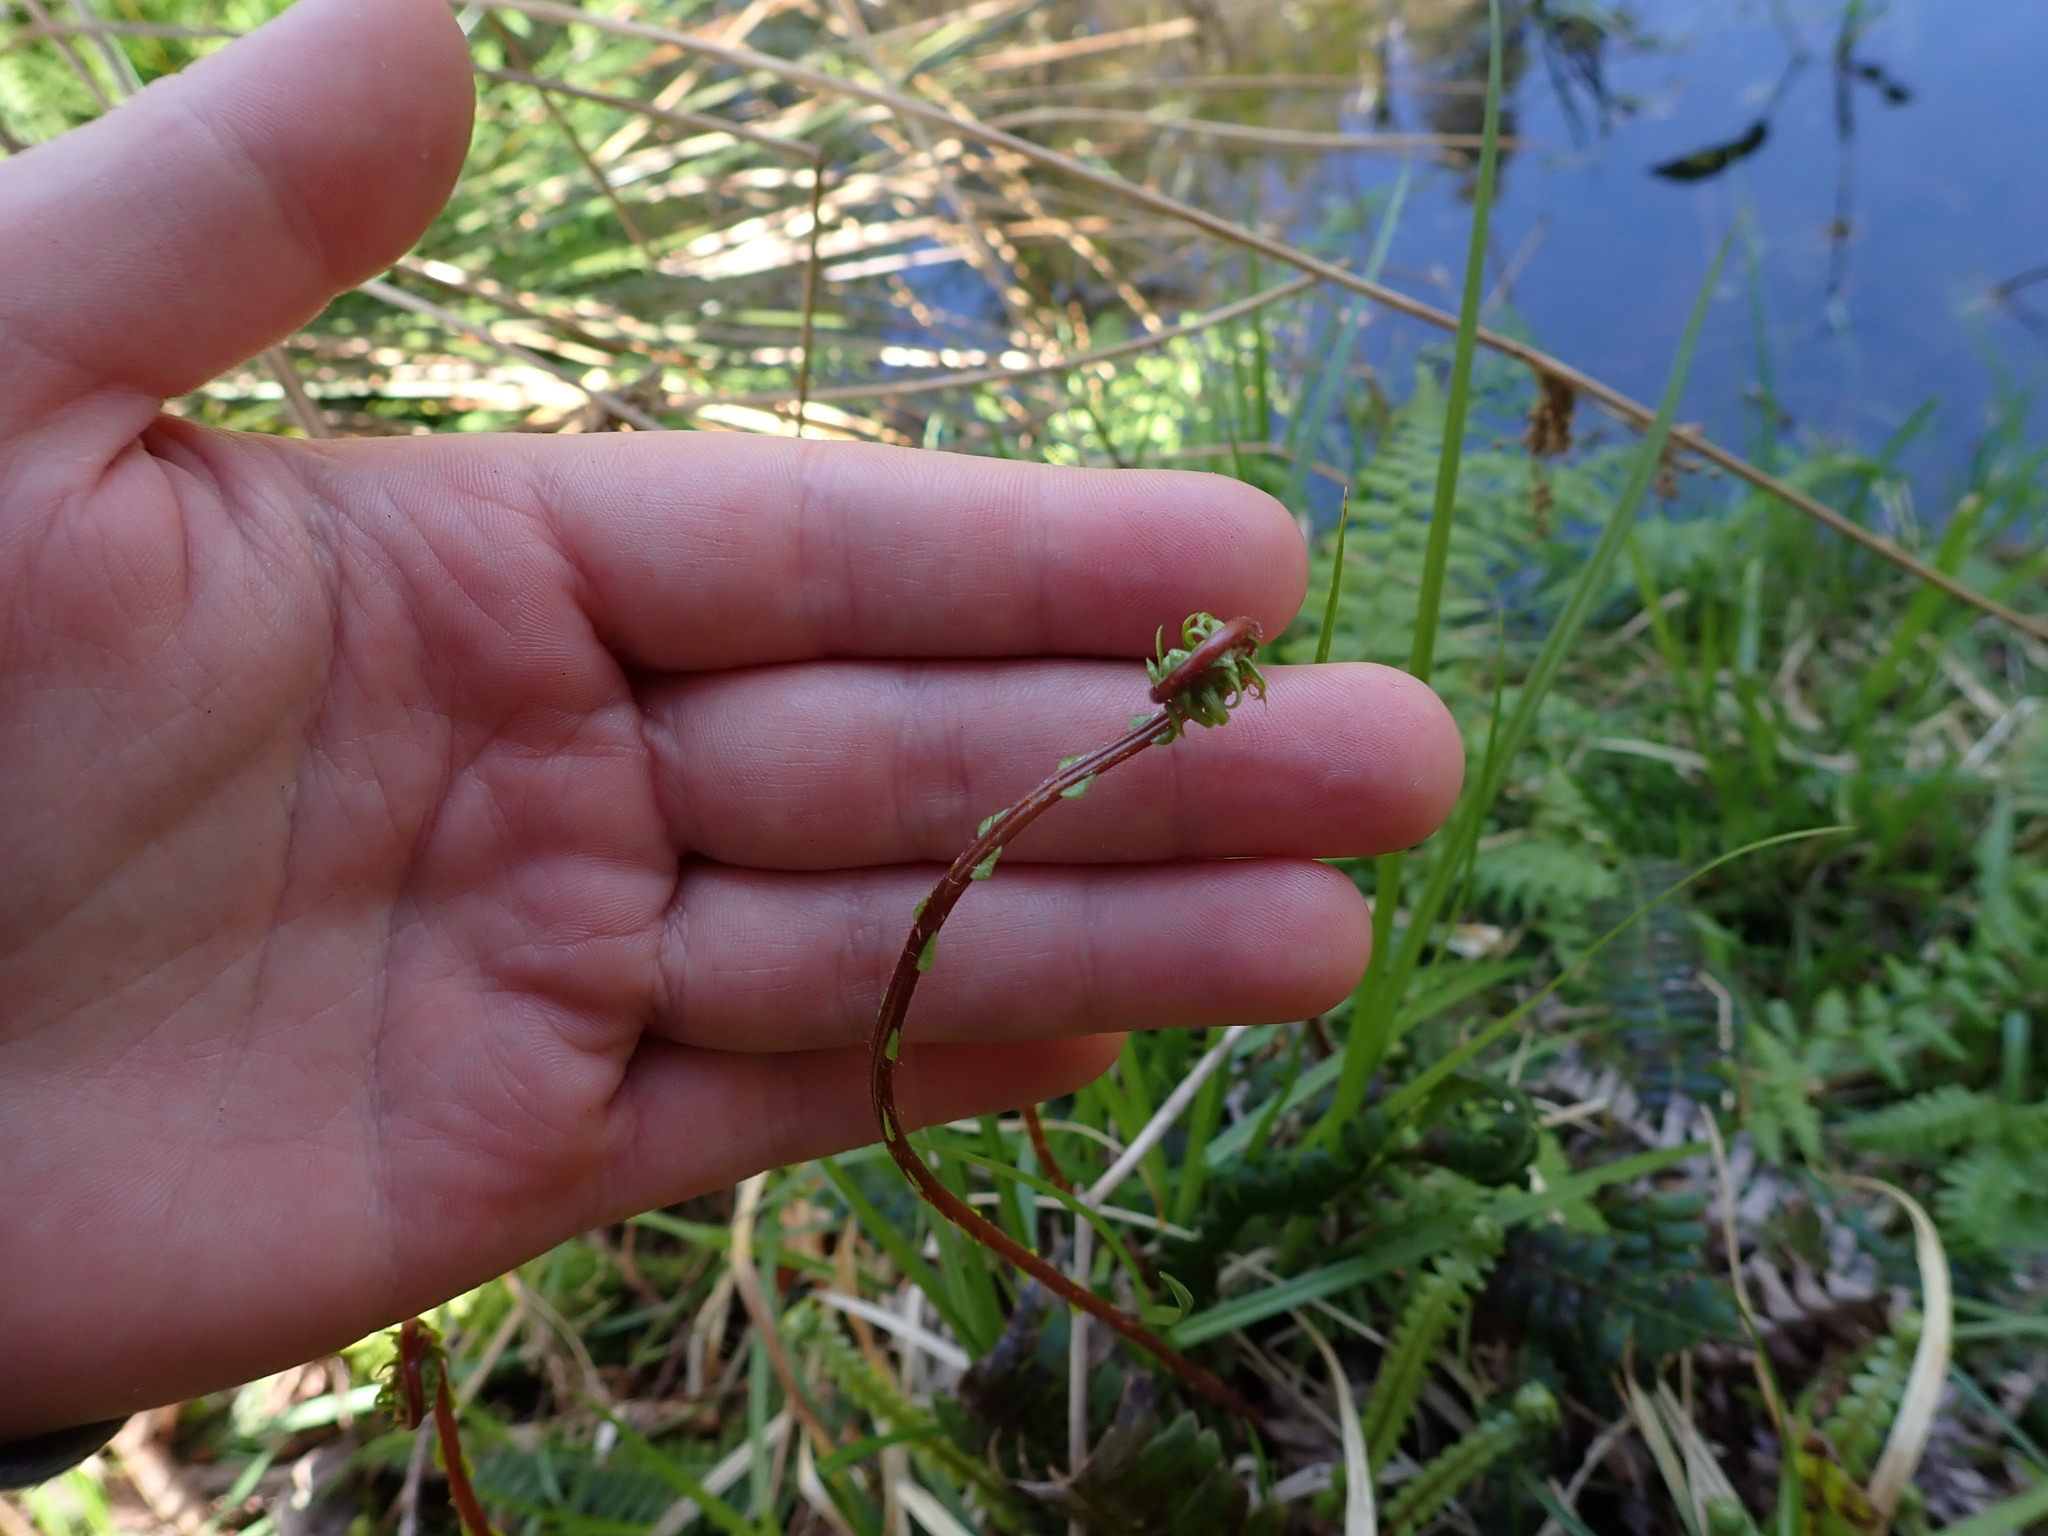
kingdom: Plantae
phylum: Tracheophyta
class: Polypodiopsida
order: Polypodiales
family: Blechnaceae
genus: Struthiopteris
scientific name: Struthiopteris spicant
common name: Deer fern
